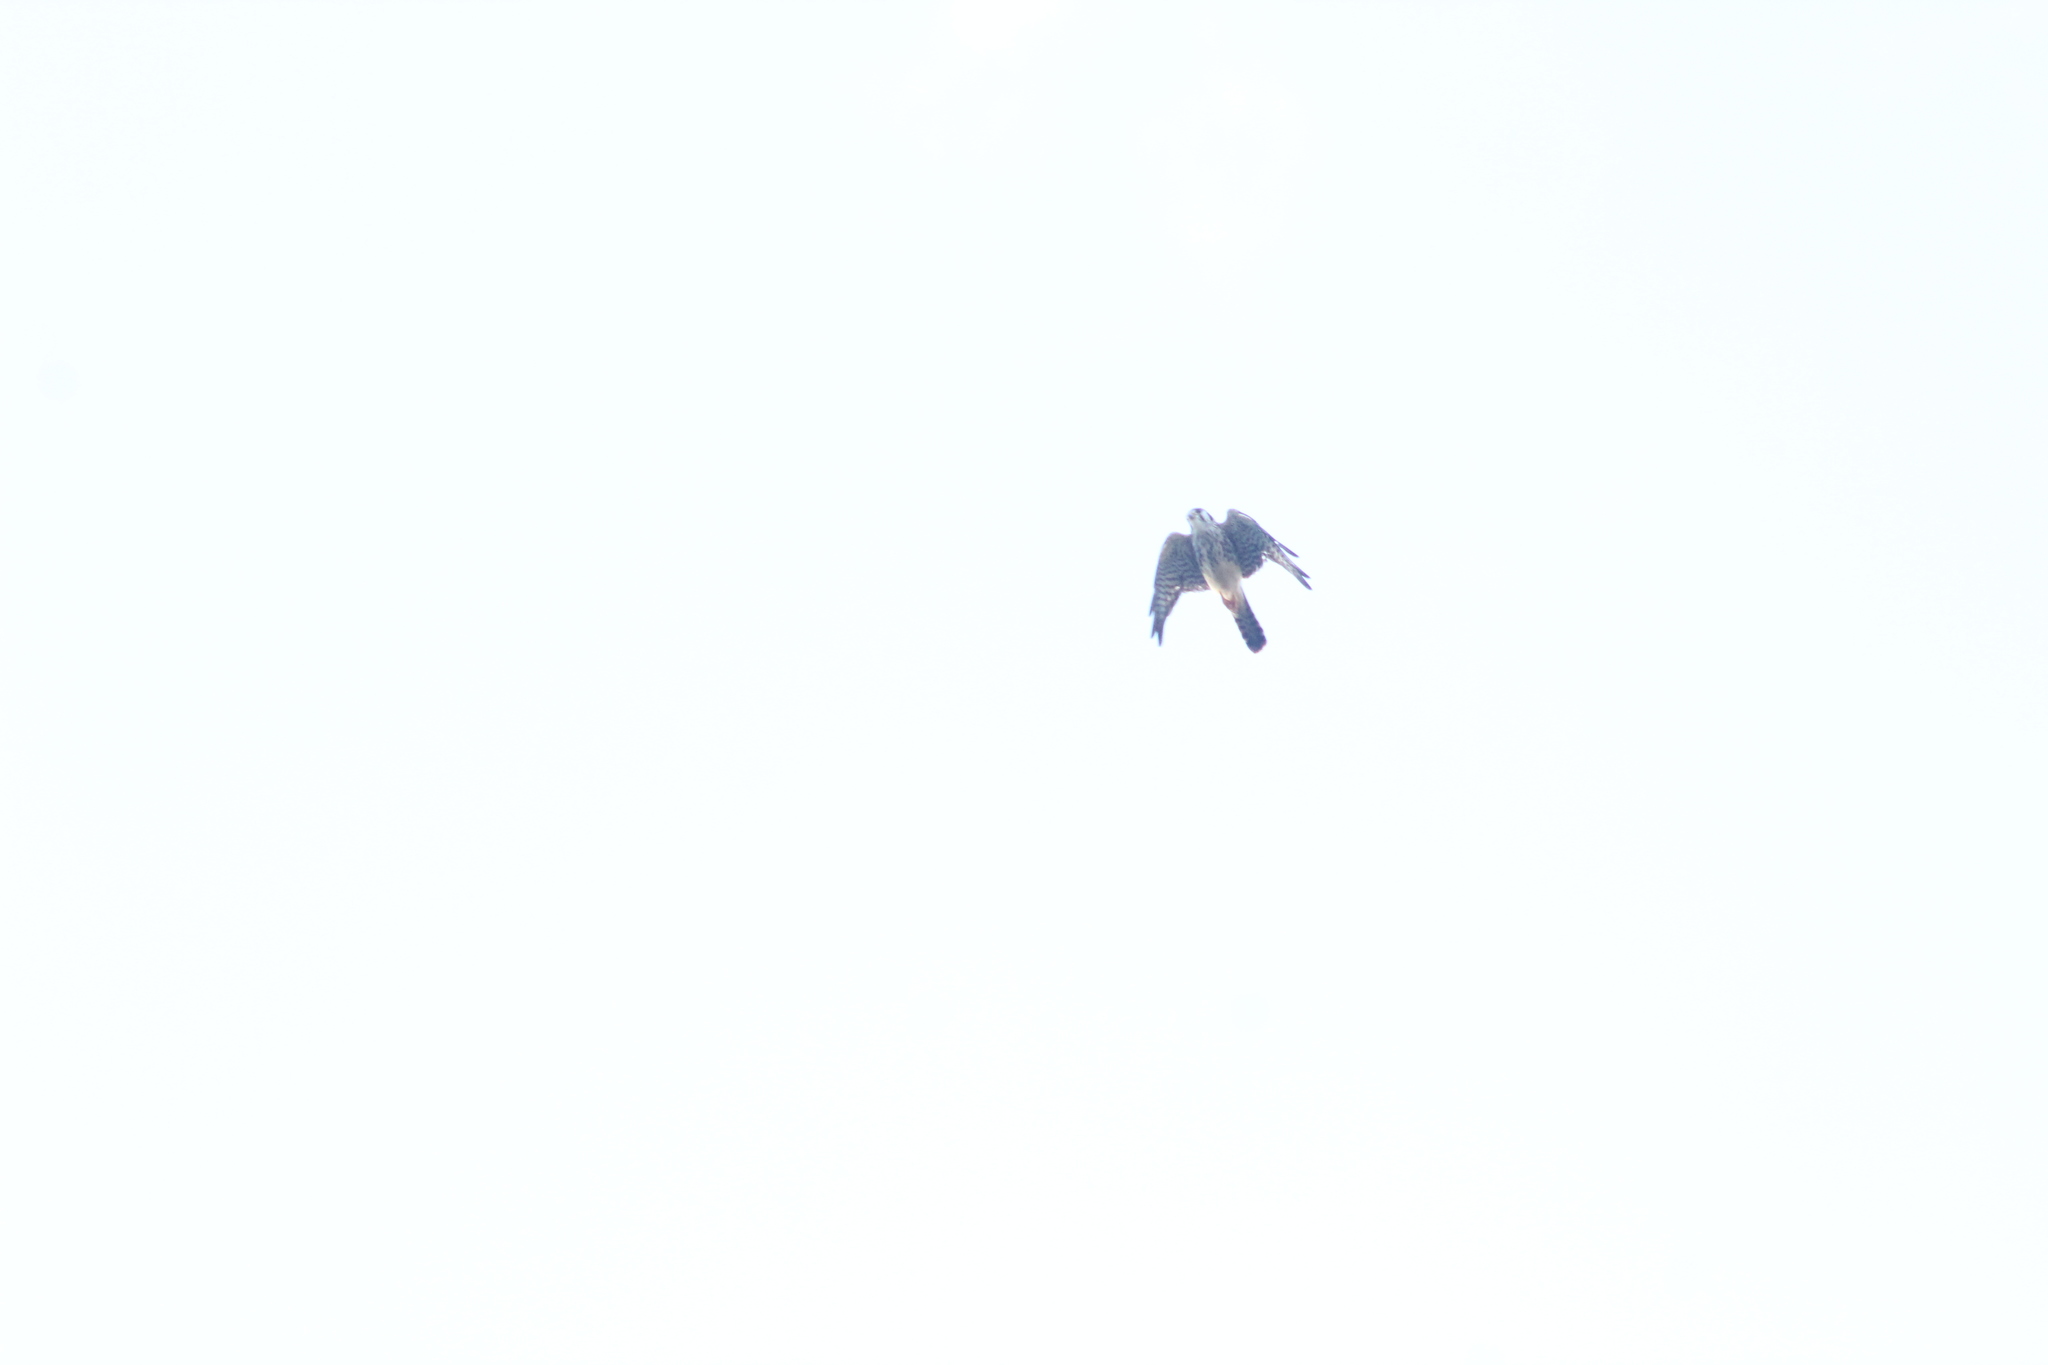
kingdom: Animalia
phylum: Chordata
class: Aves
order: Falconiformes
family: Falconidae
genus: Falco
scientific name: Falco sparverius
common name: American kestrel
